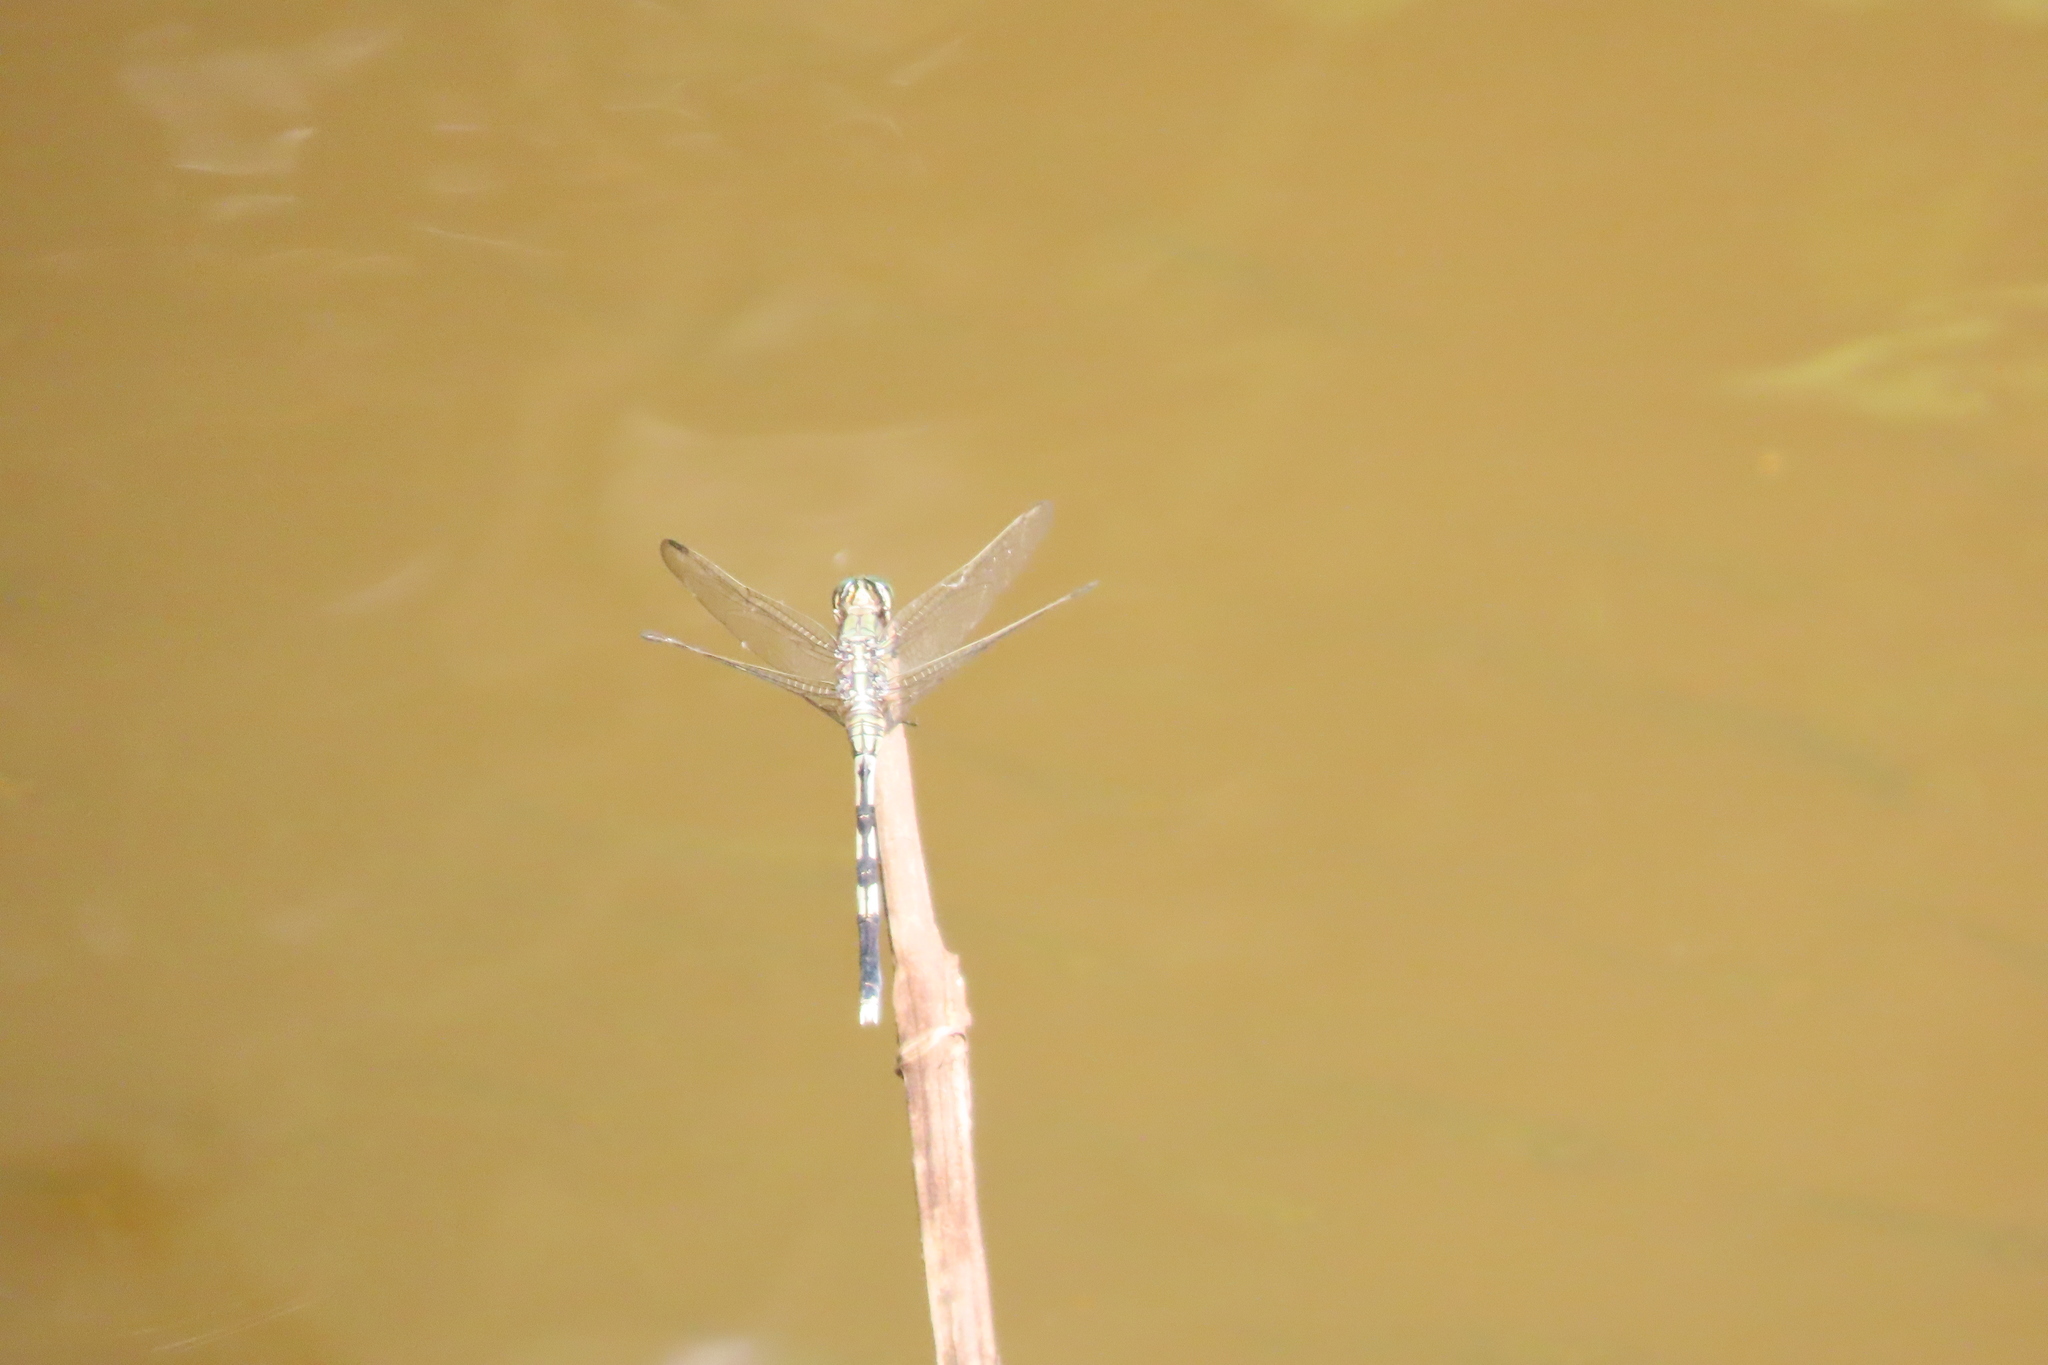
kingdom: Animalia
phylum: Arthropoda
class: Insecta
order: Odonata
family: Libellulidae
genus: Orthetrum
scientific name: Orthetrum sabina
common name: Slender skimmer
